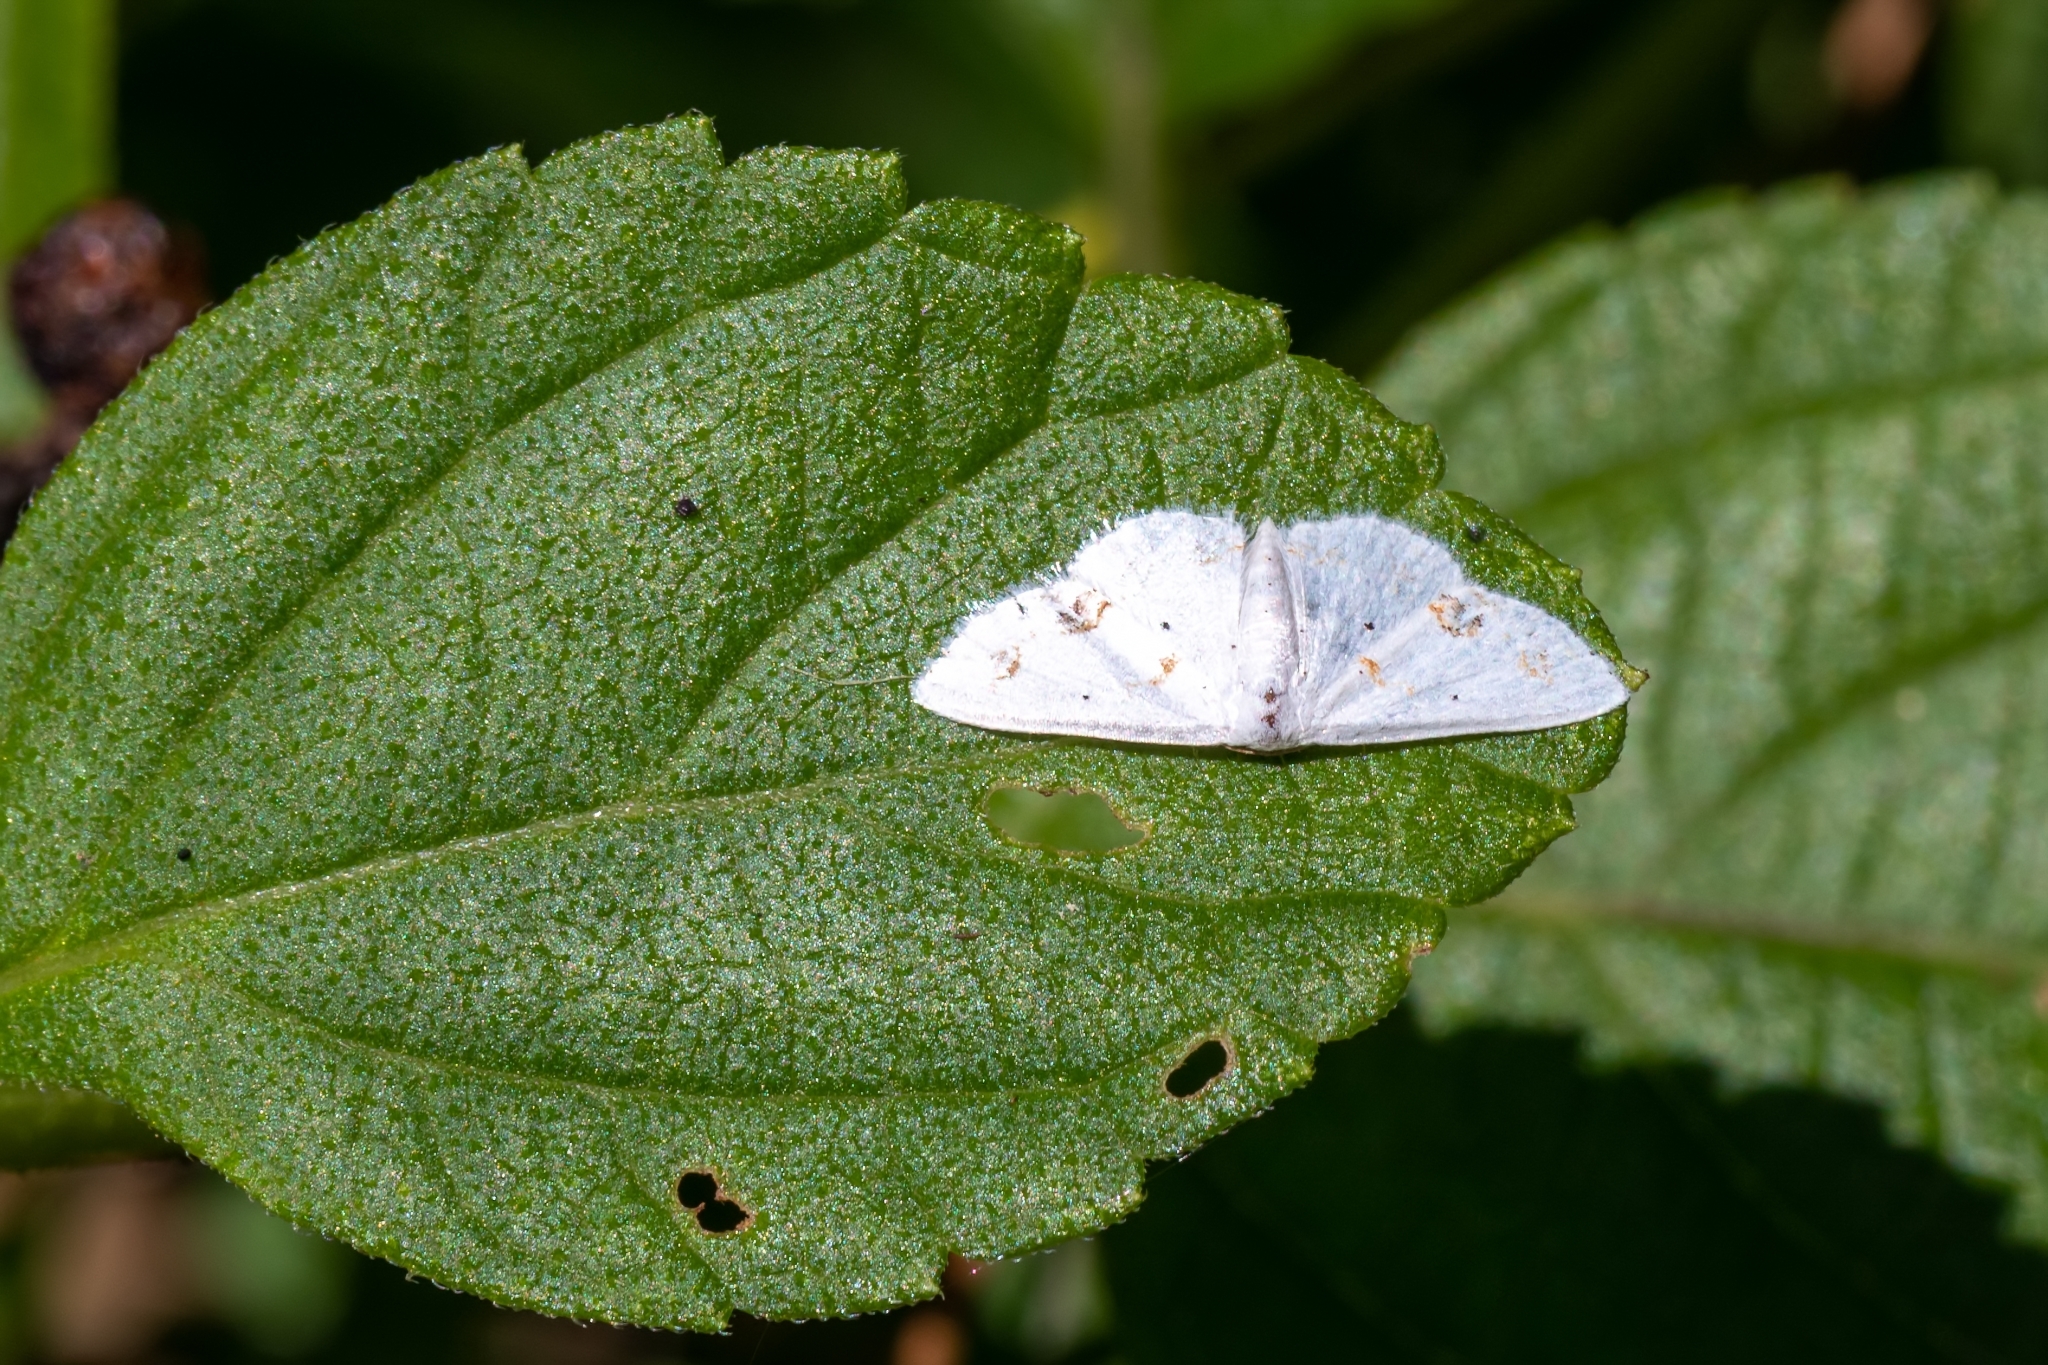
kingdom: Animalia
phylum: Arthropoda
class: Insecta
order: Lepidoptera
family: Geometridae
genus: Scopula
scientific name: Scopula lautaria
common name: Small frosted wave moth
